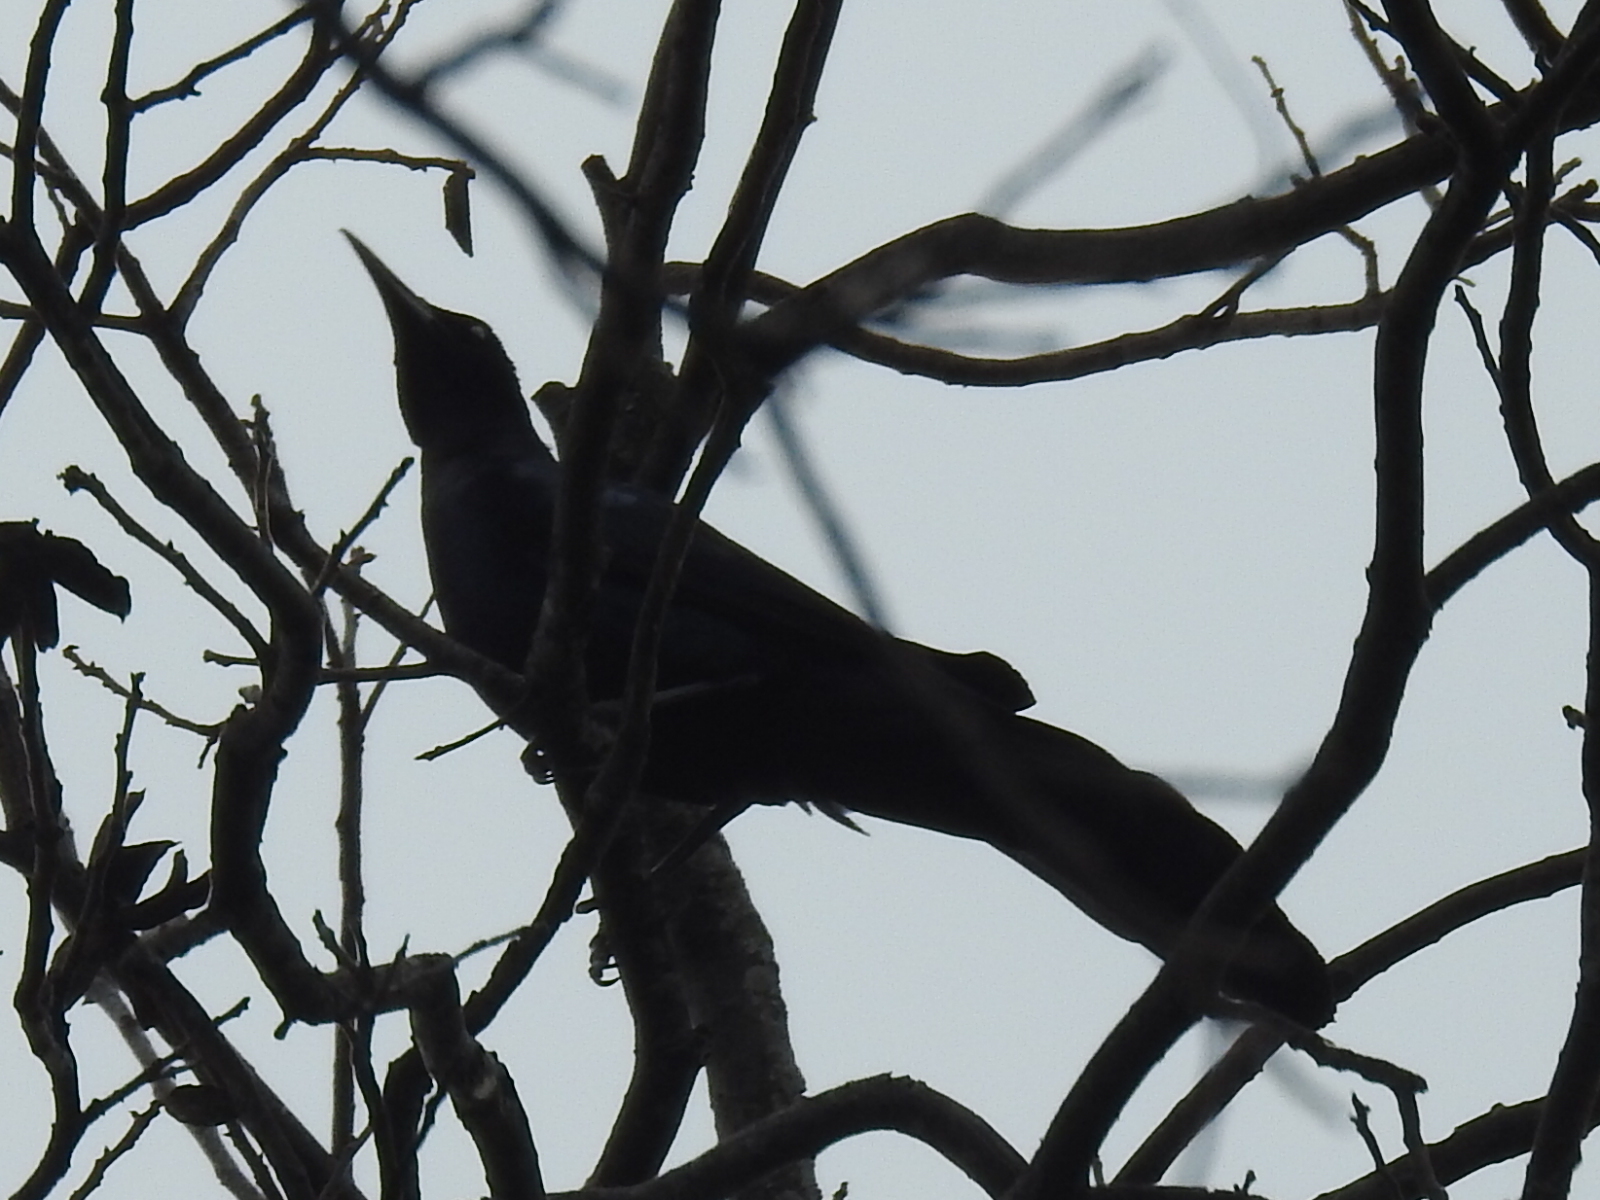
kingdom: Animalia
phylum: Chordata
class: Aves
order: Passeriformes
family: Icteridae
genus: Quiscalus
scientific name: Quiscalus mexicanus
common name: Great-tailed grackle
